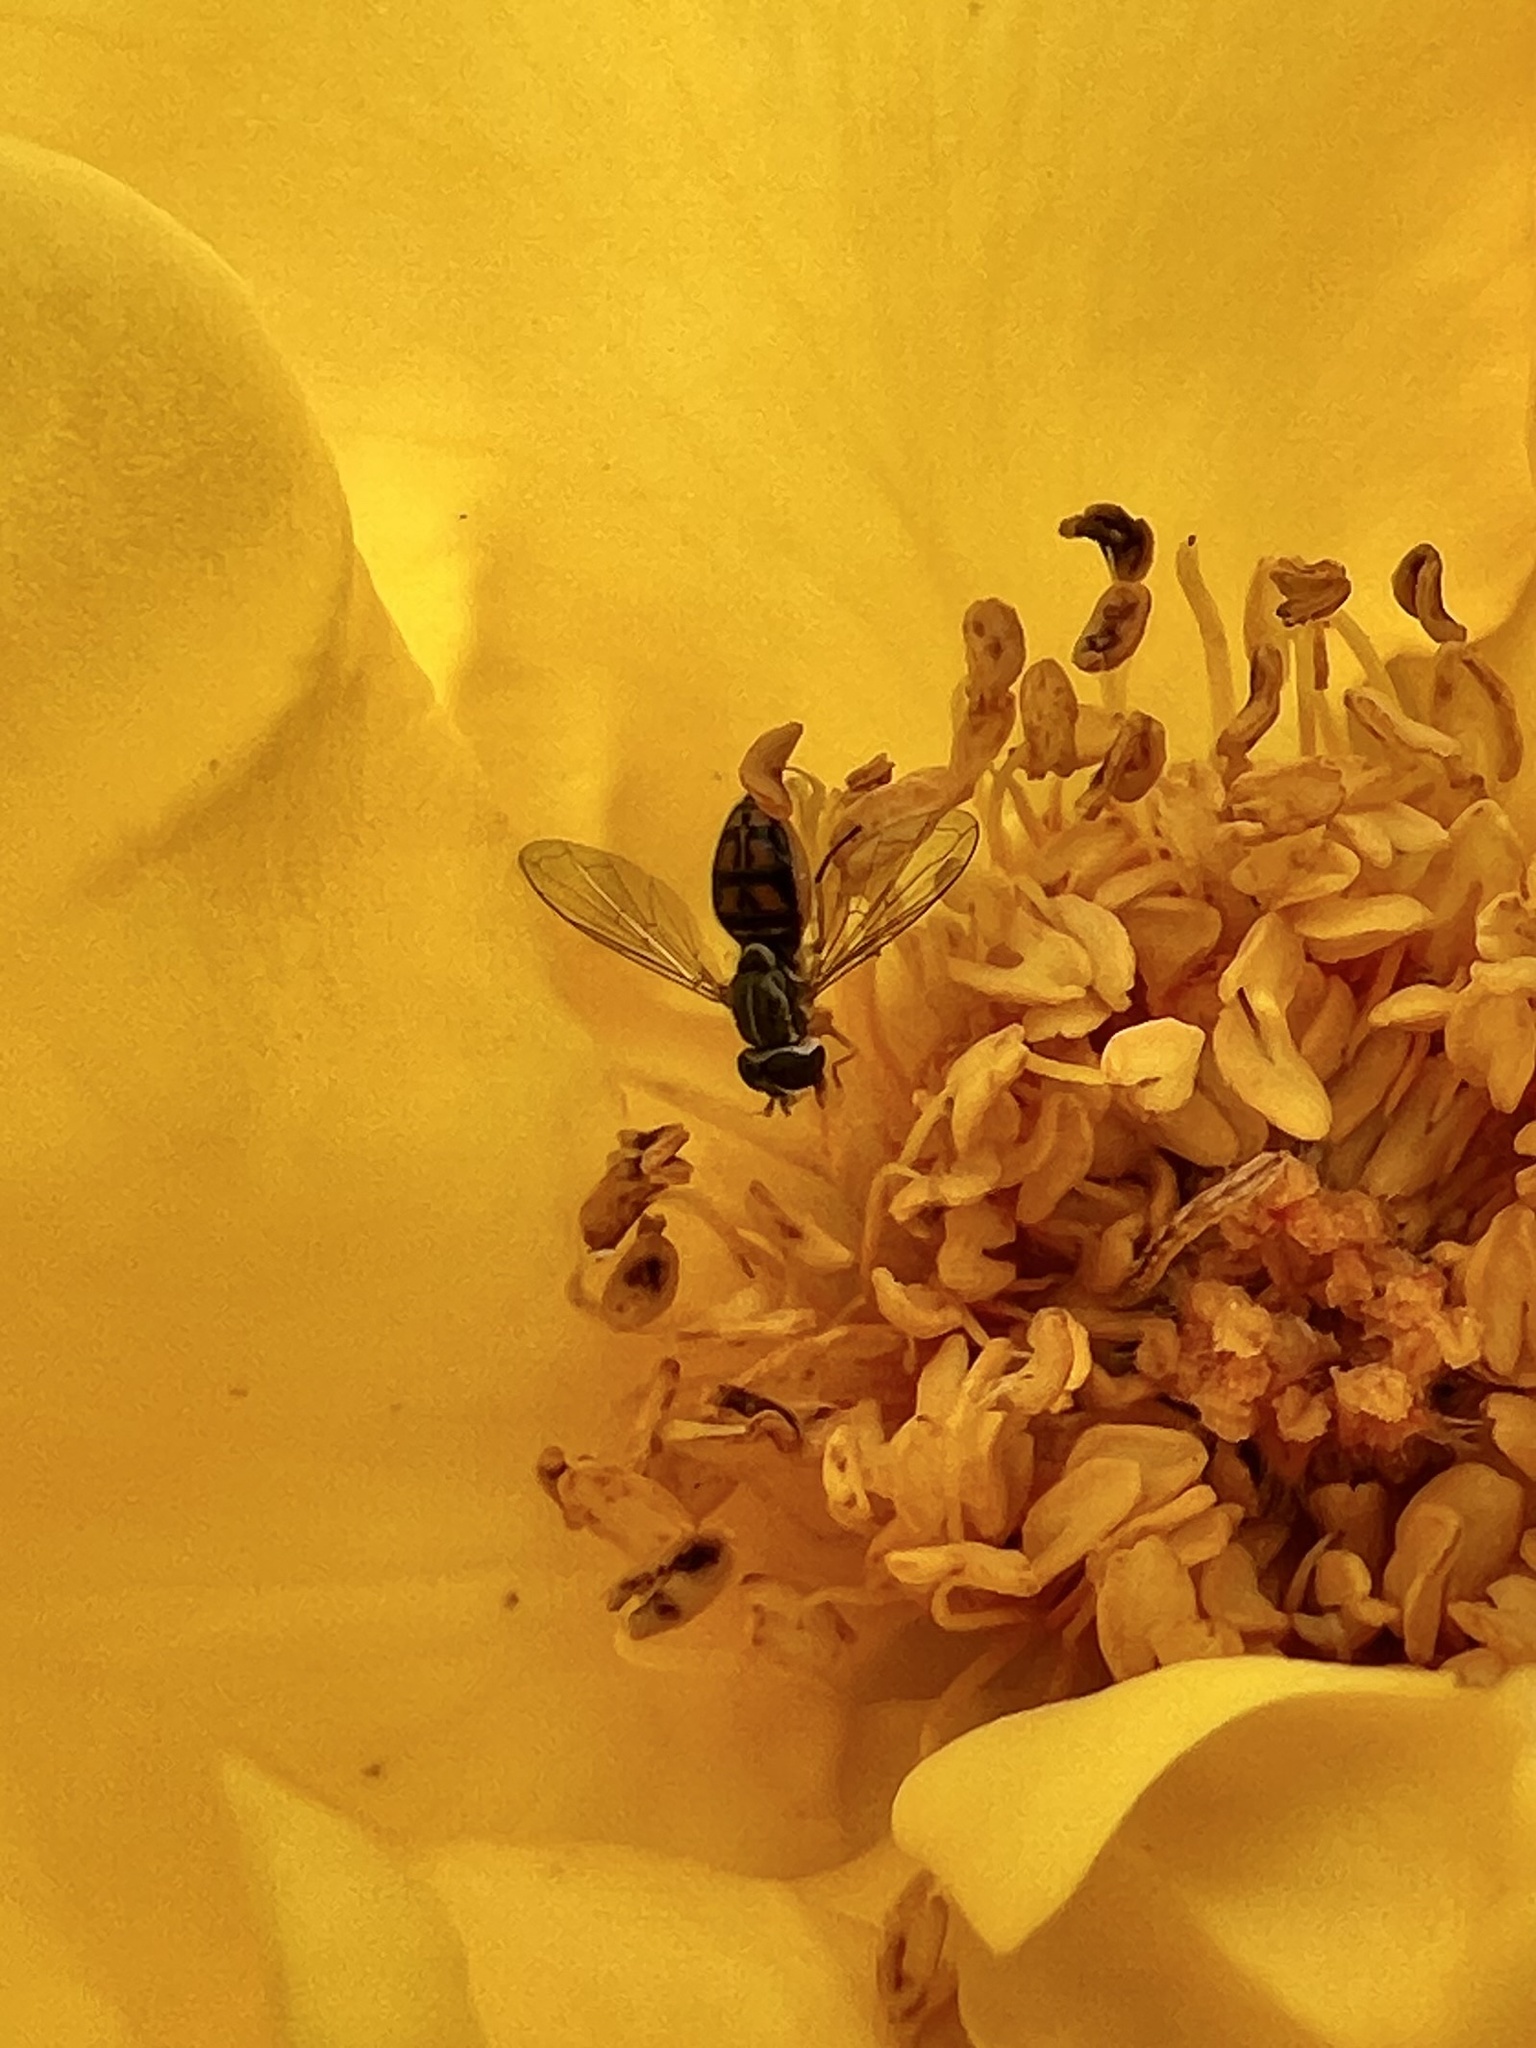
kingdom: Animalia
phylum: Arthropoda
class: Insecta
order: Diptera
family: Syrphidae
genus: Toxomerus
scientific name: Toxomerus marginatus
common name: Syrphid fly
